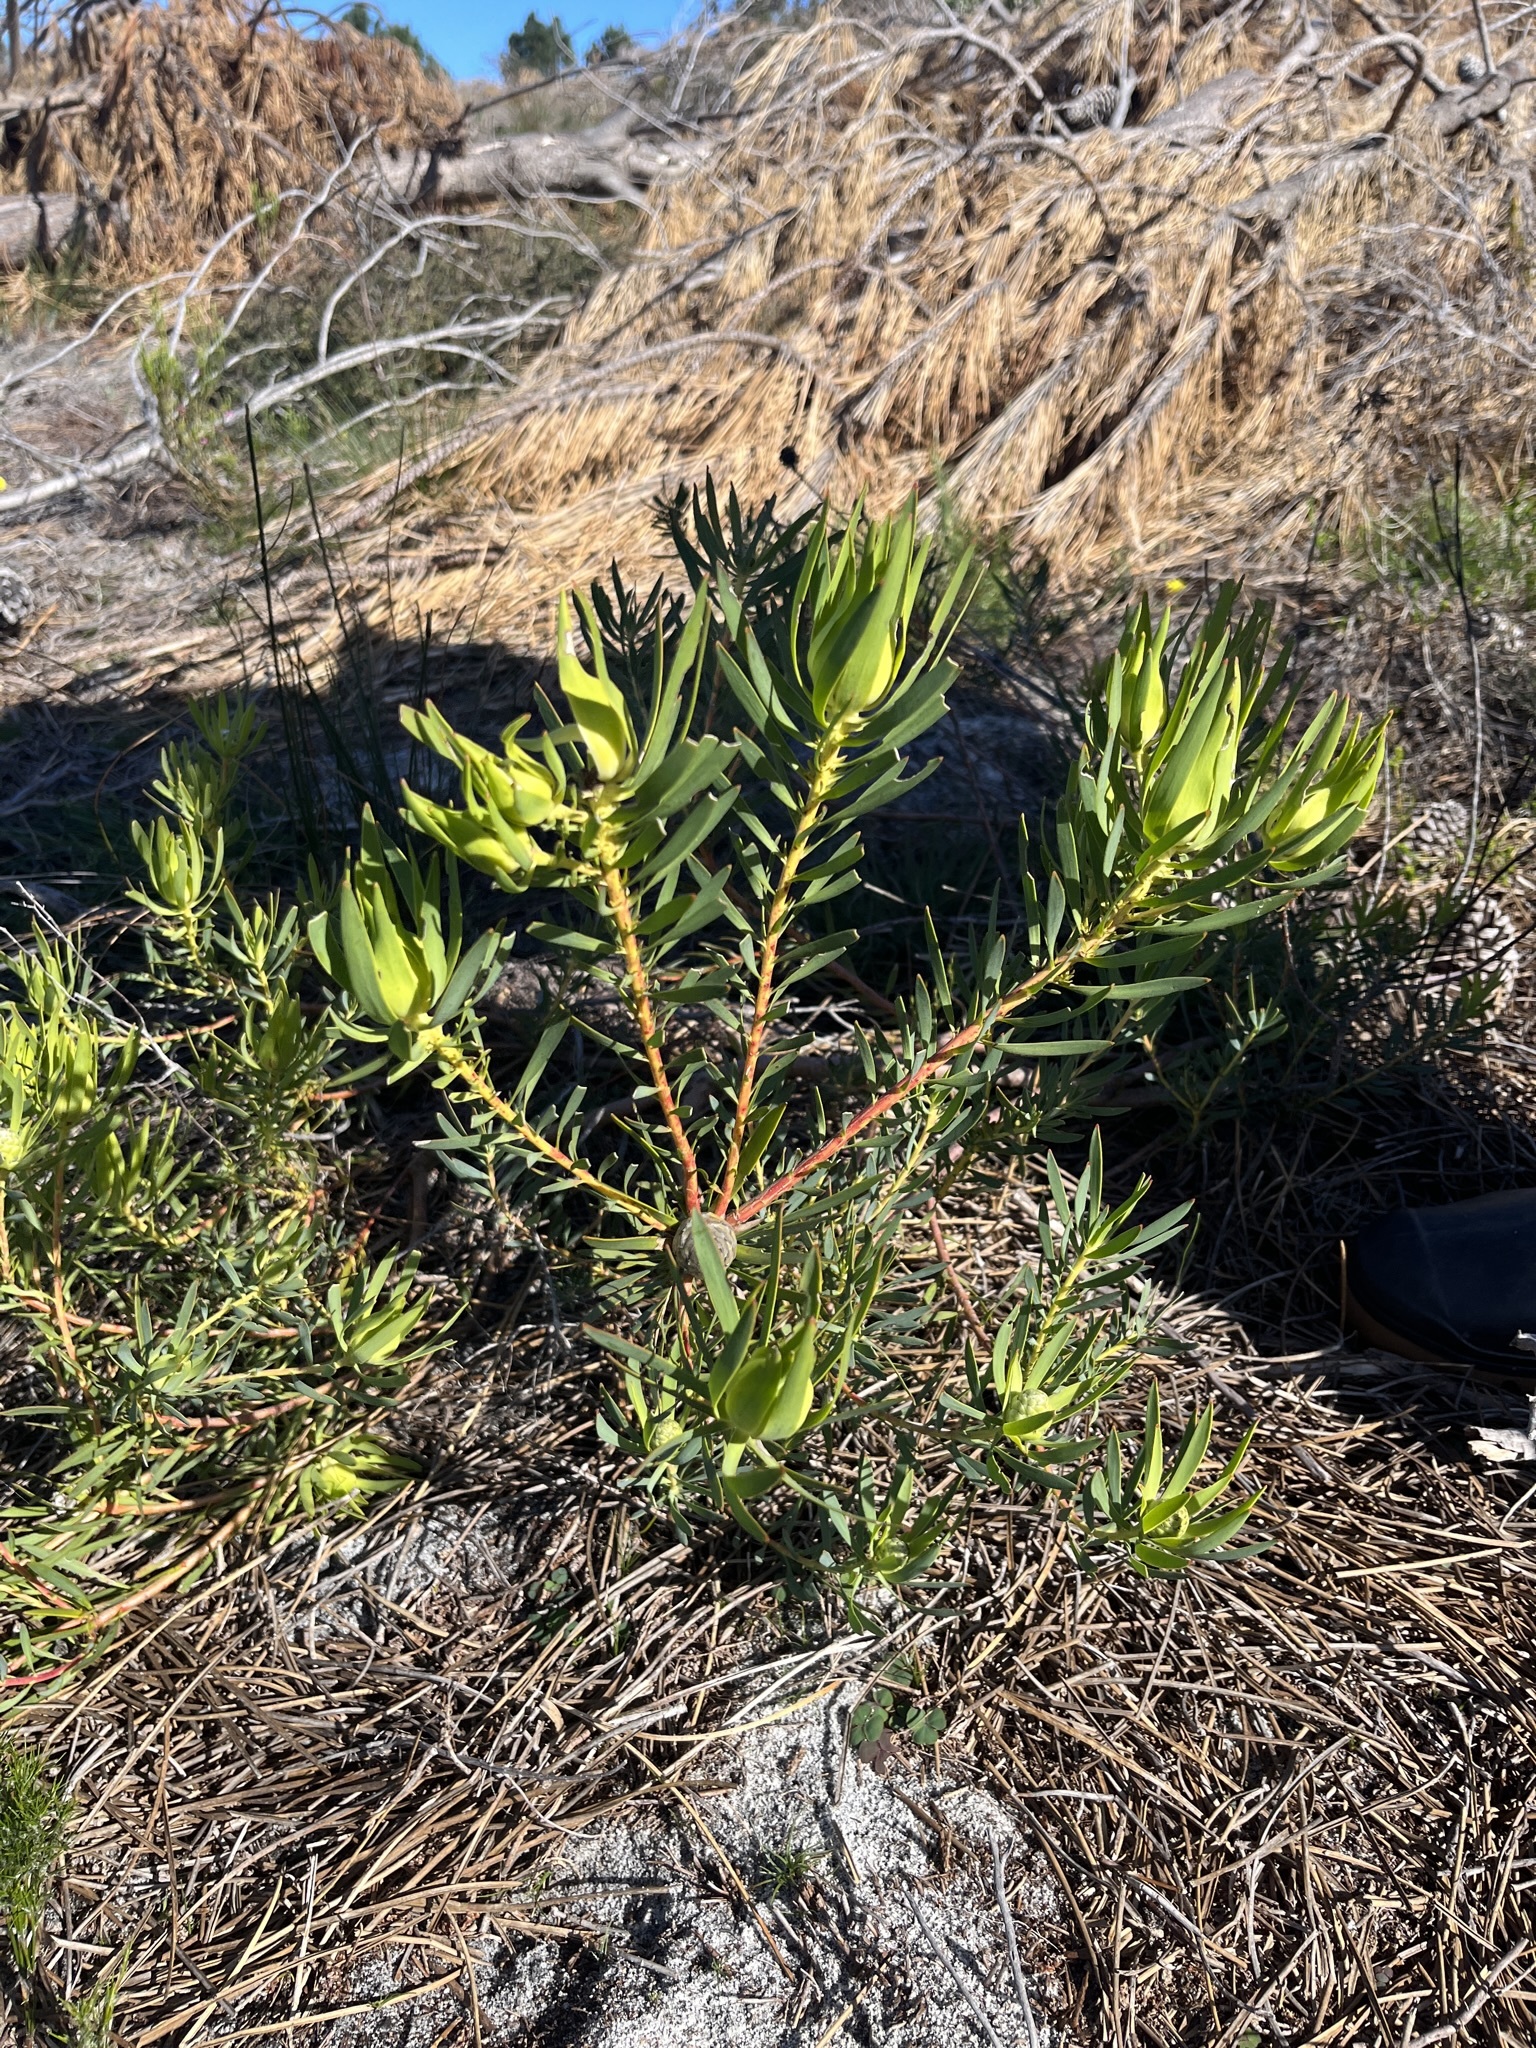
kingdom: Plantae
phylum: Tracheophyta
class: Magnoliopsida
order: Proteales
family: Proteaceae
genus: Leucadendron
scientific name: Leucadendron salignum
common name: Common sunshine conebush
